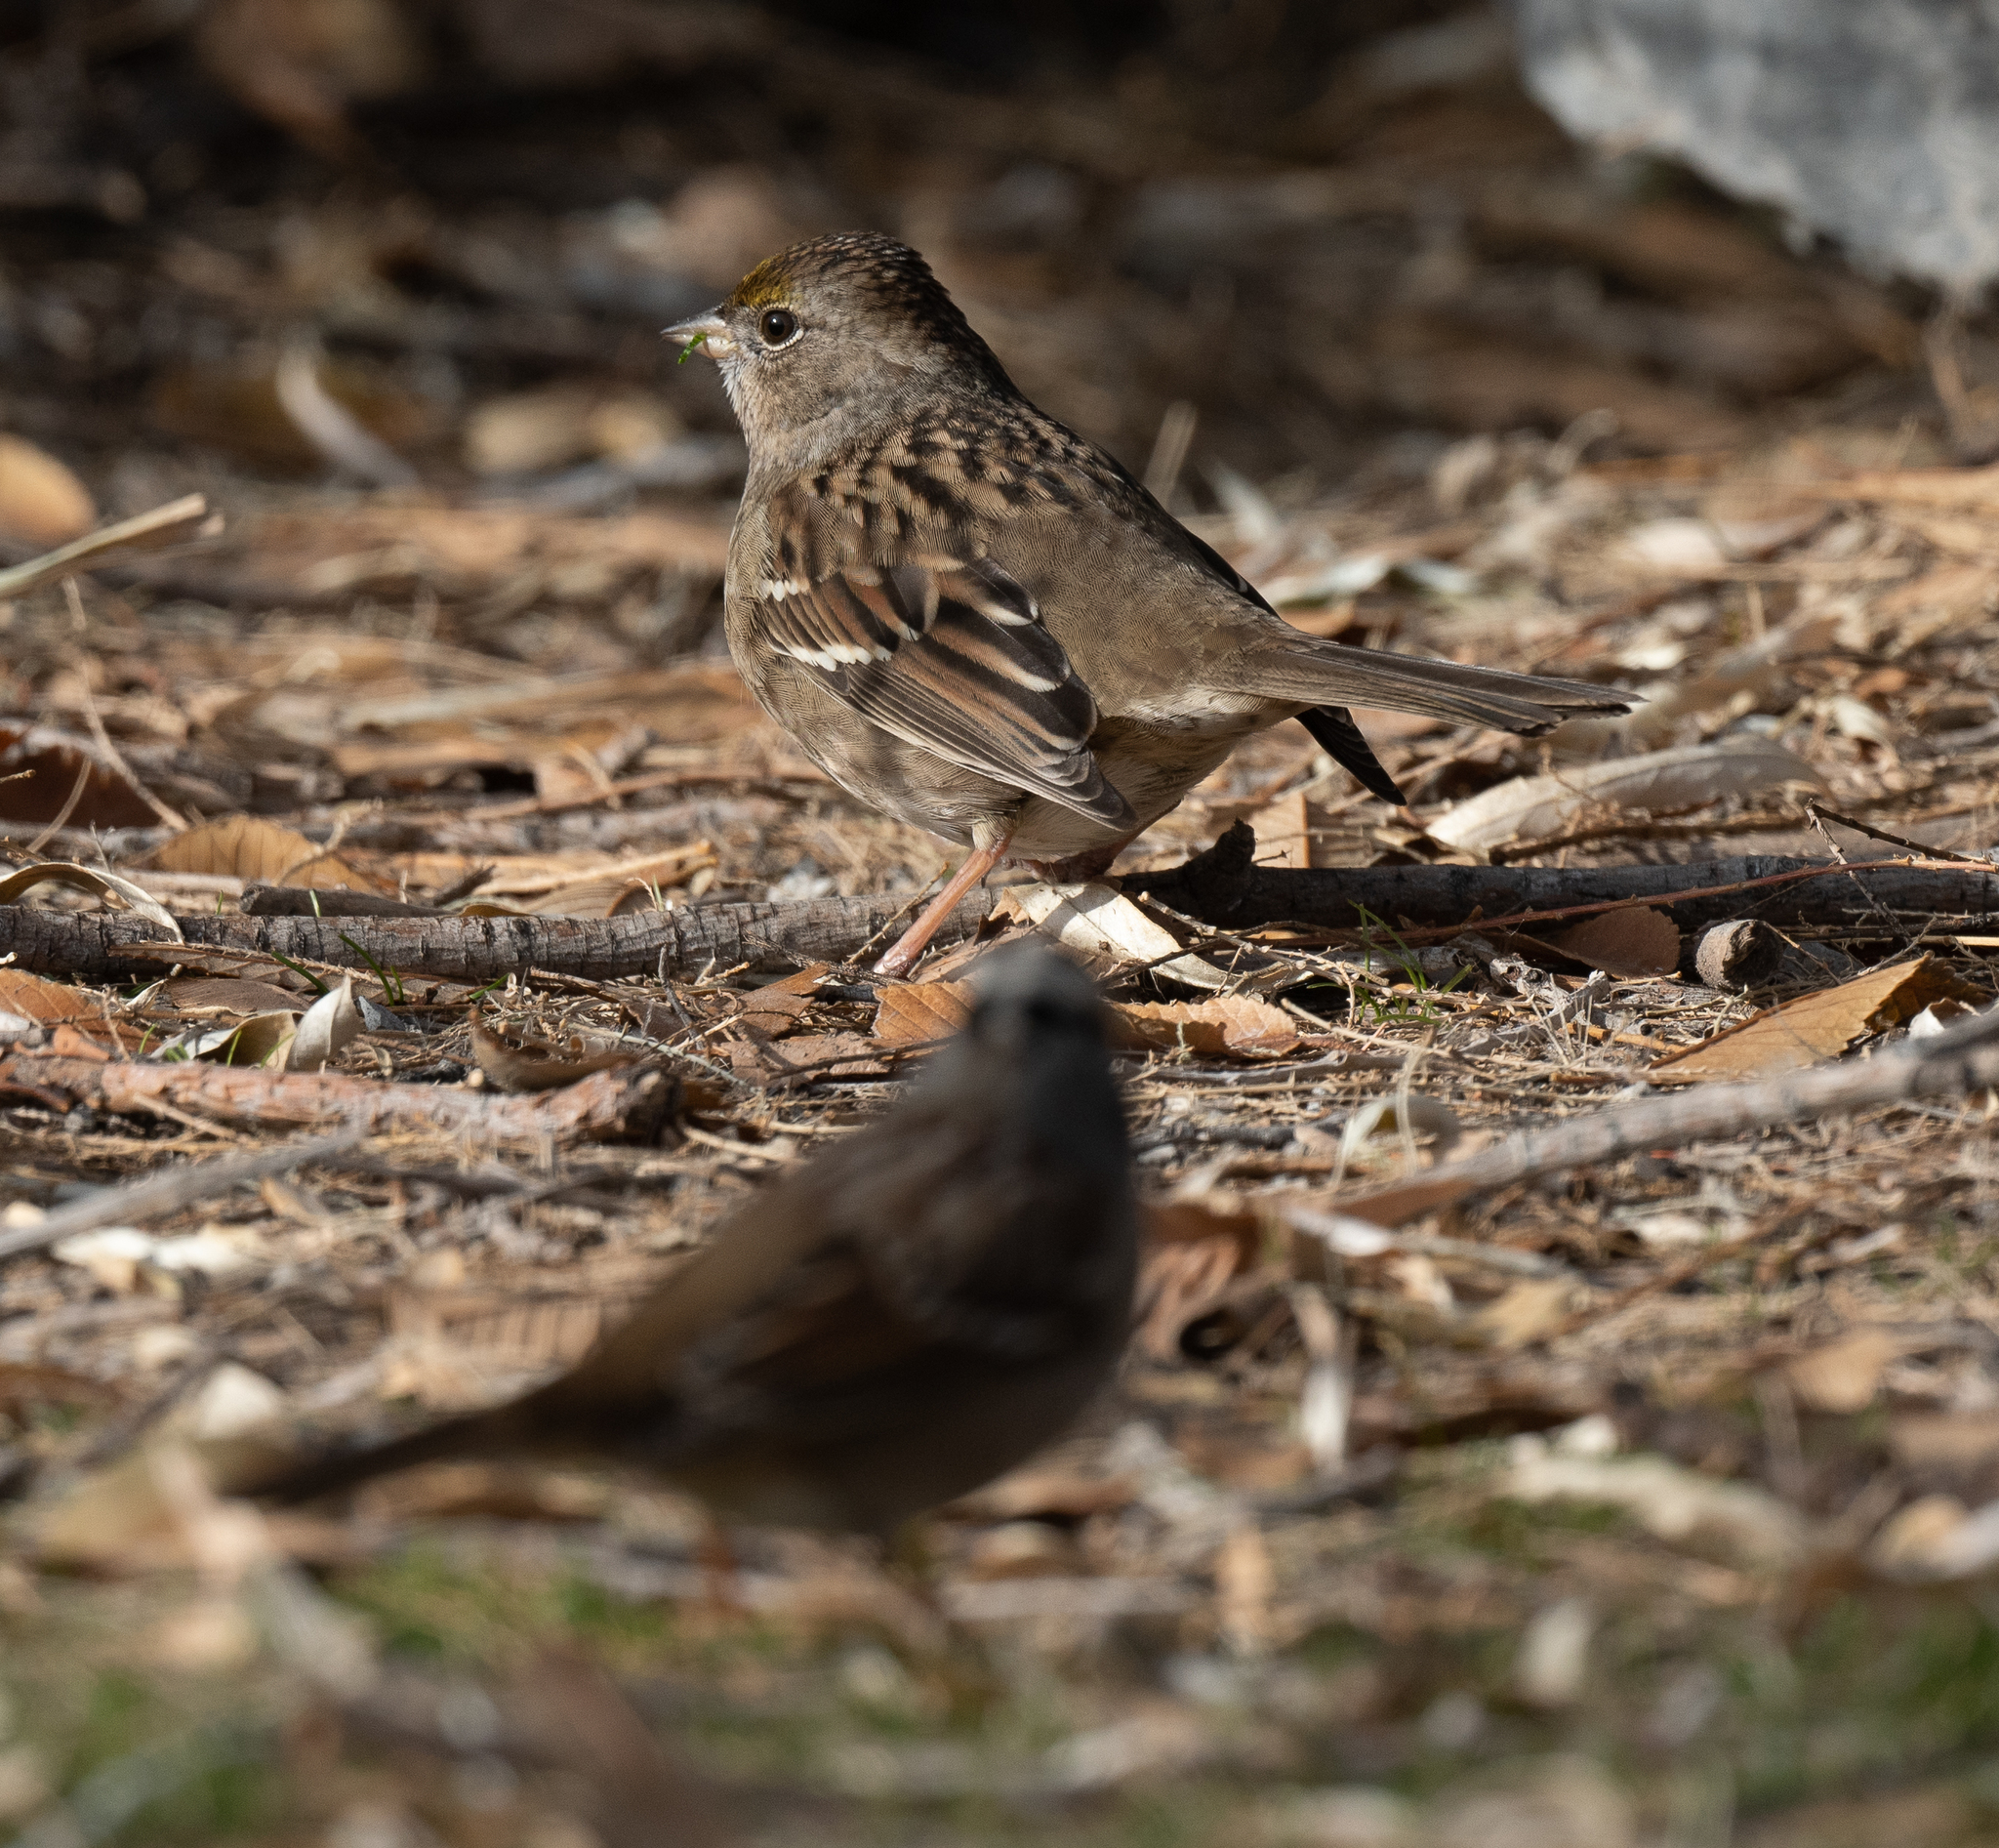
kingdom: Animalia
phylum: Chordata
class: Aves
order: Passeriformes
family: Passerellidae
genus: Zonotrichia
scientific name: Zonotrichia atricapilla
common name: Golden-crowned sparrow
